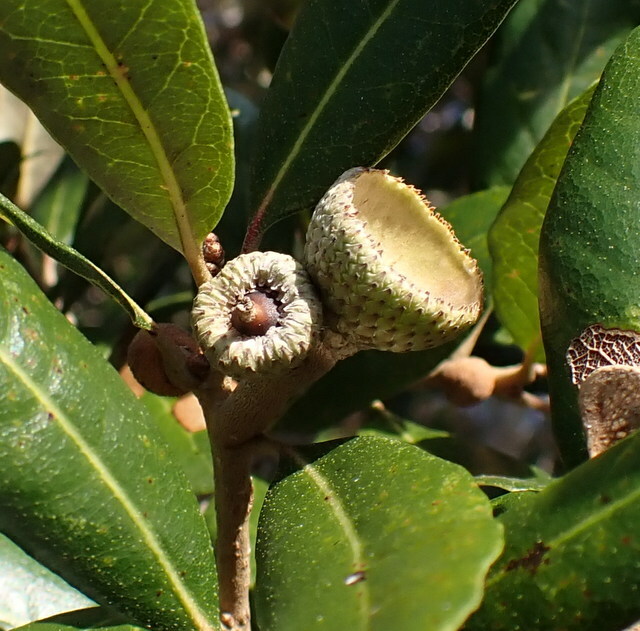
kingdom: Plantae
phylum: Tracheophyta
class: Magnoliopsida
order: Fagales
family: Fagaceae
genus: Quercus
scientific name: Quercus virginiana
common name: Southern live oak
